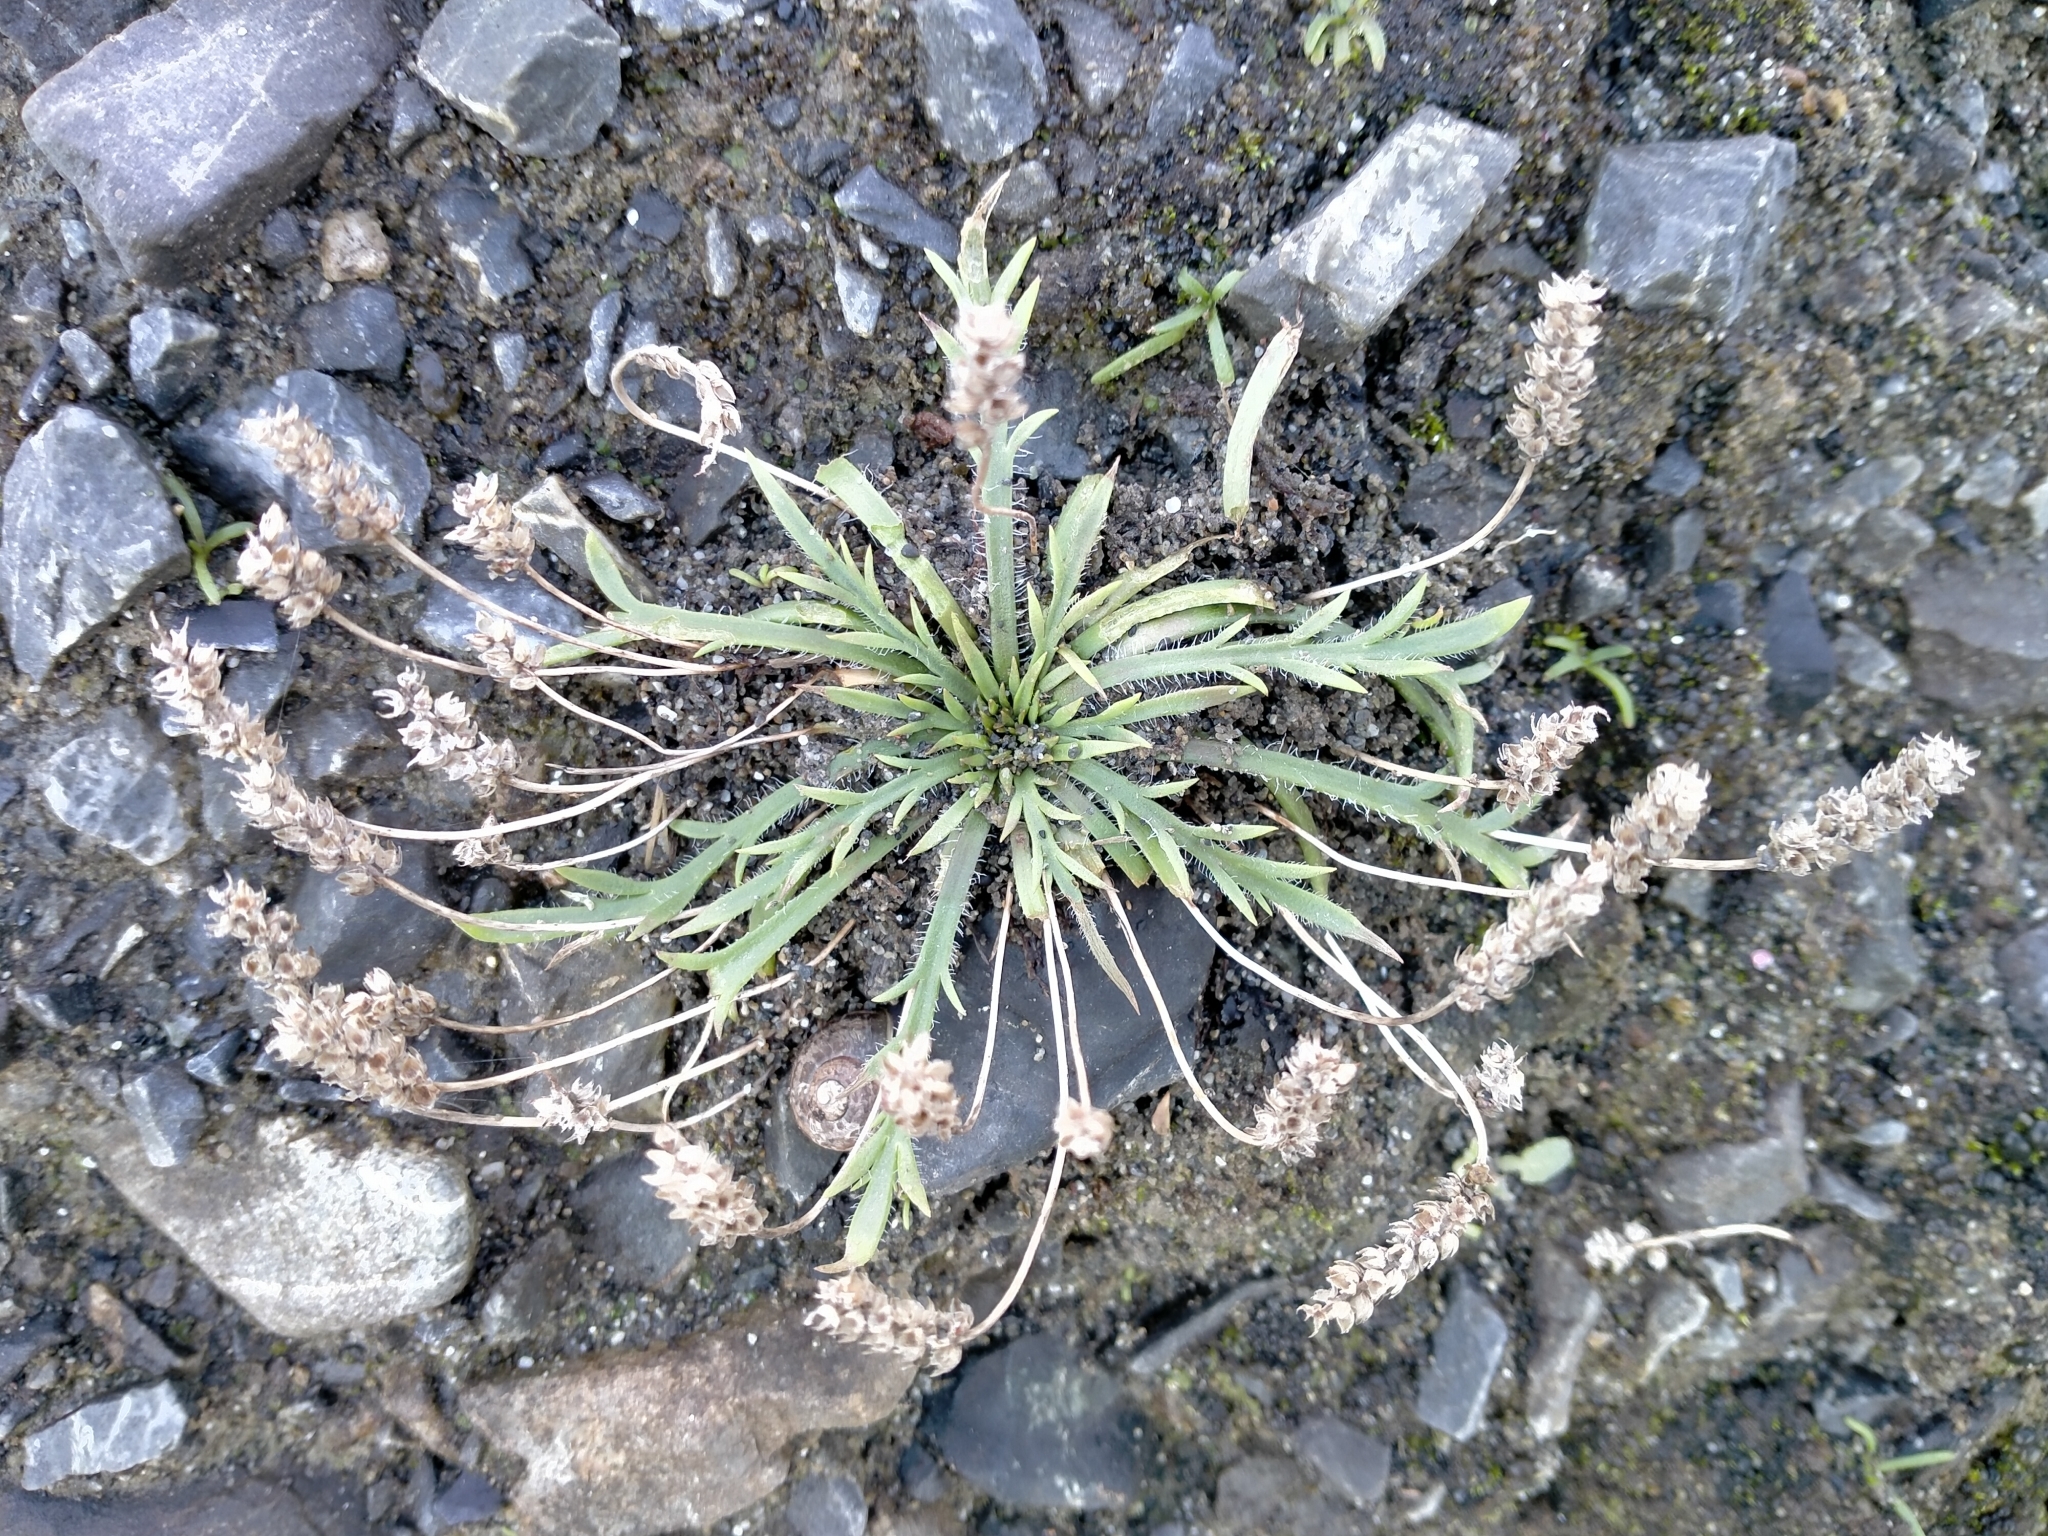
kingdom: Plantae
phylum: Tracheophyta
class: Magnoliopsida
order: Lamiales
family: Plantaginaceae
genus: Plantago
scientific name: Plantago coronopus
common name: Buck's-horn plantain
